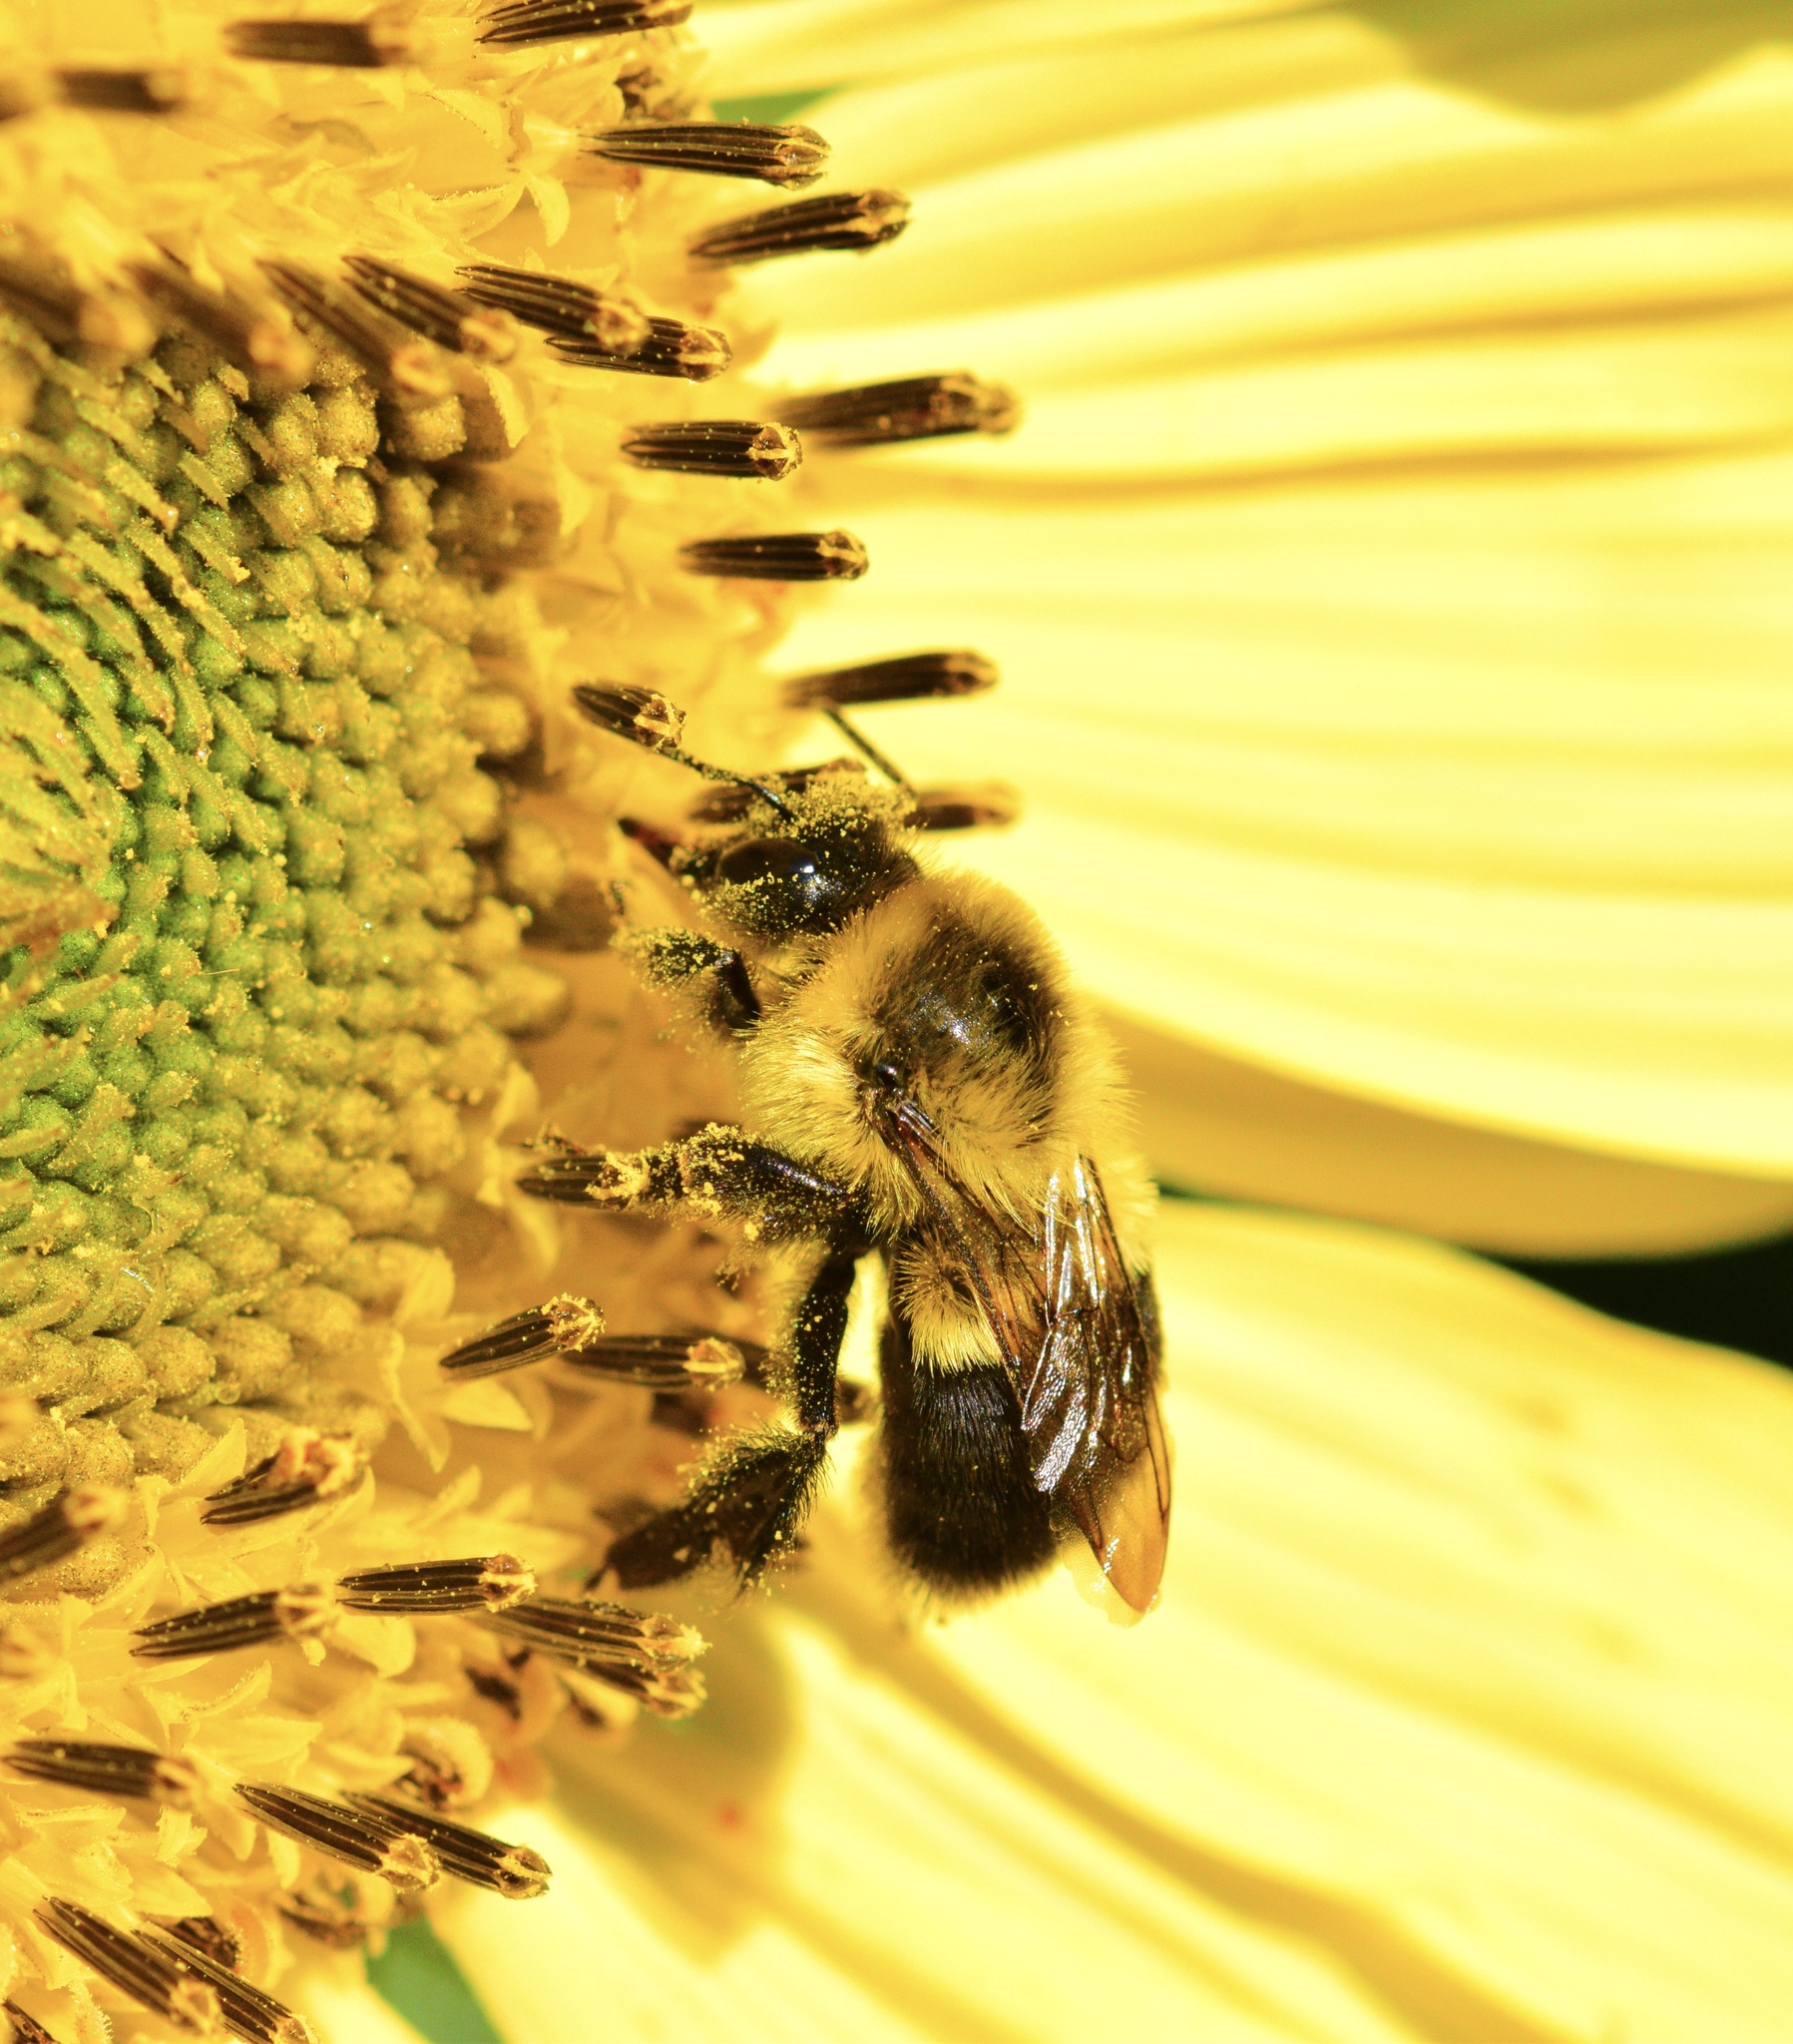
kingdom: Animalia
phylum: Arthropoda
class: Insecta
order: Hymenoptera
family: Apidae
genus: Bombus
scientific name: Bombus impatiens
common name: Common eastern bumble bee
